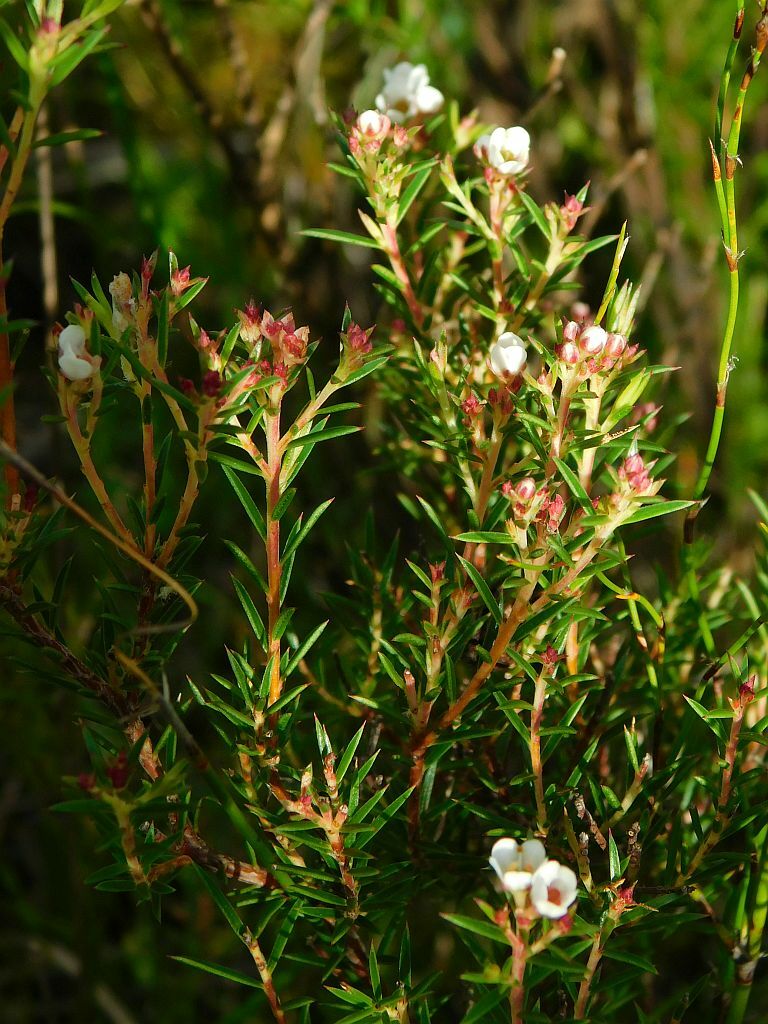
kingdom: Plantae
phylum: Tracheophyta
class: Magnoliopsida
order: Sapindales
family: Rutaceae
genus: Diosma
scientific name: Diosma hirsuta
